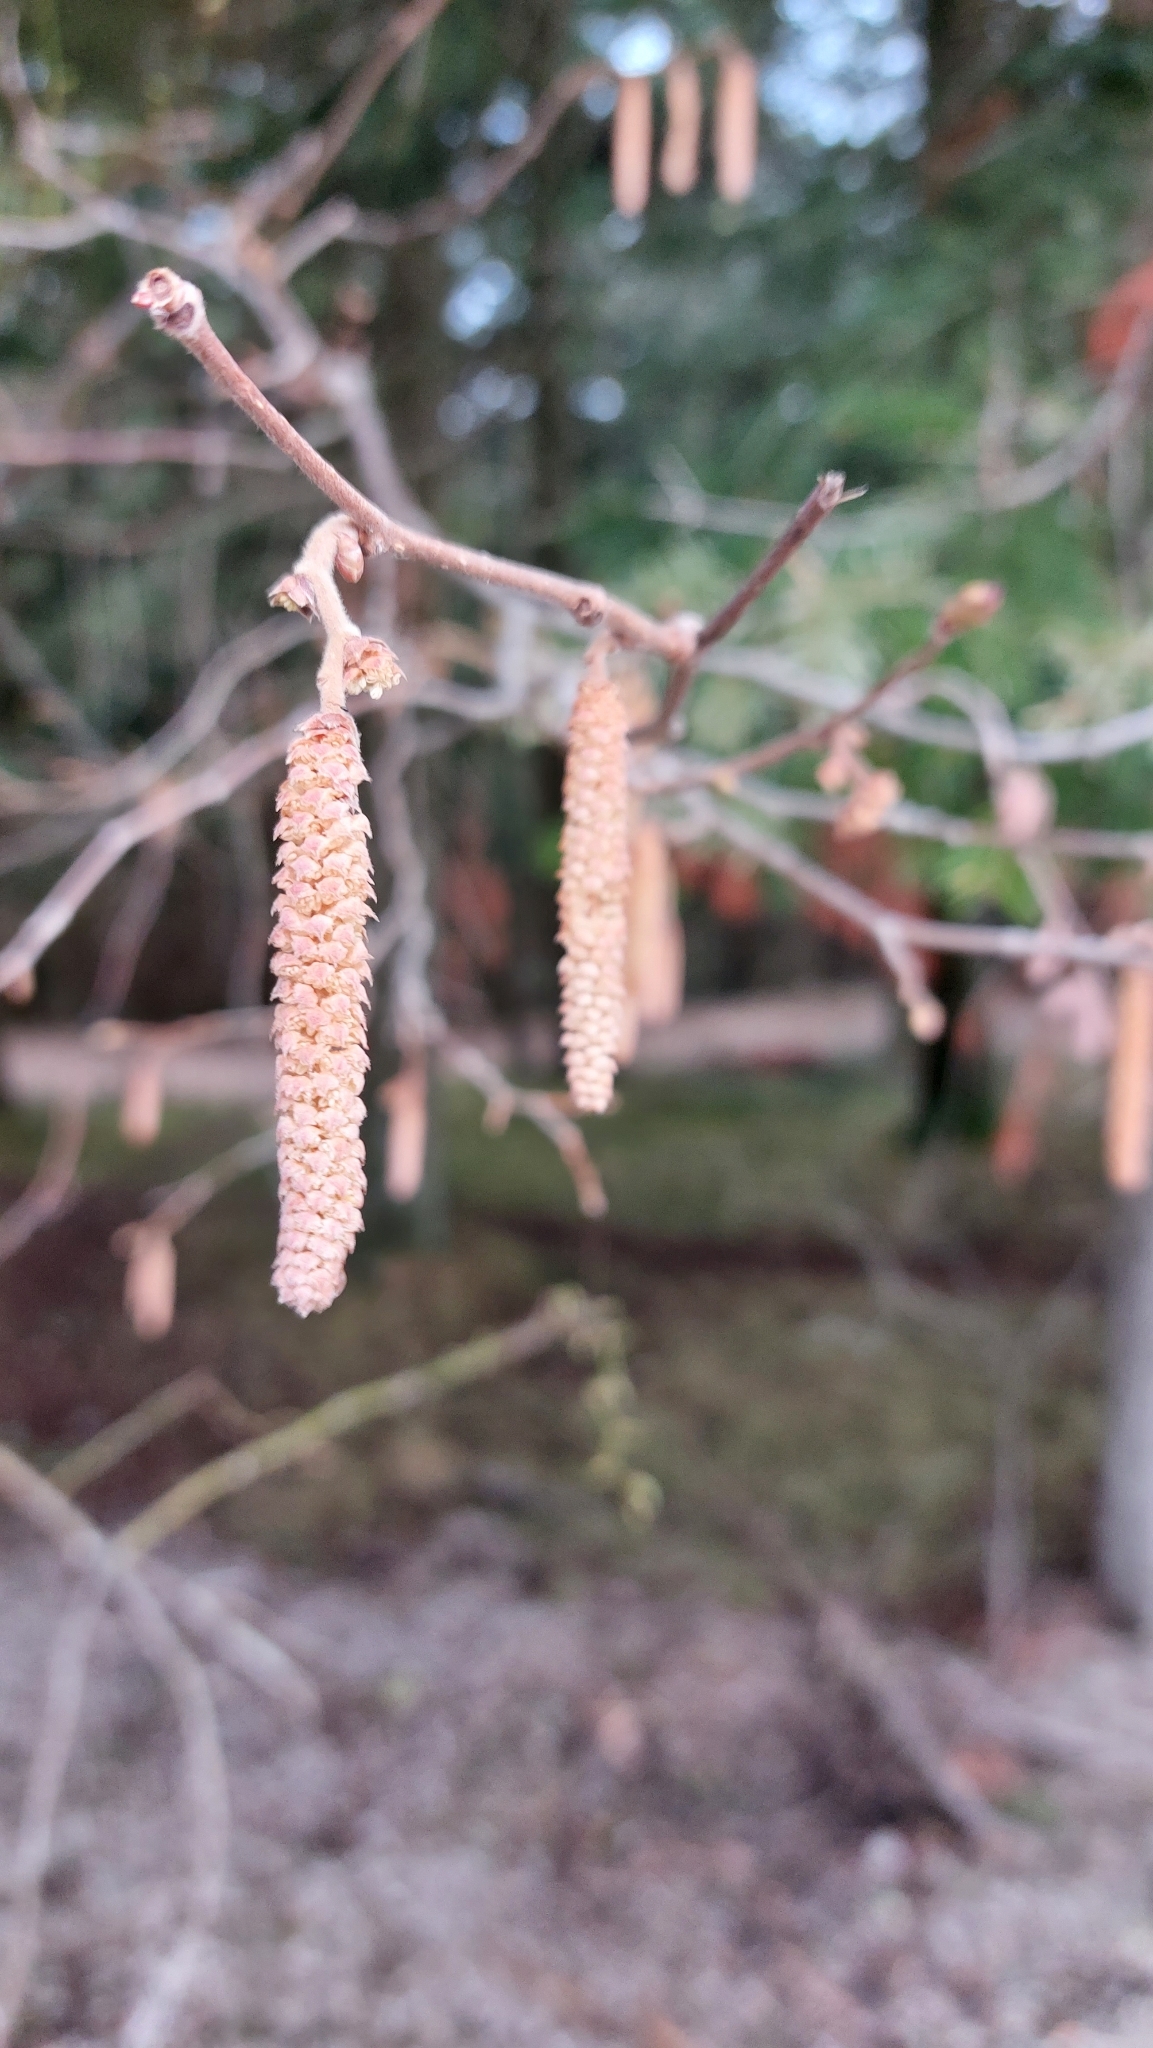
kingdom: Plantae
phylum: Tracheophyta
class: Magnoliopsida
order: Fagales
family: Betulaceae
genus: Corylus
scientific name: Corylus avellana
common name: European hazel
